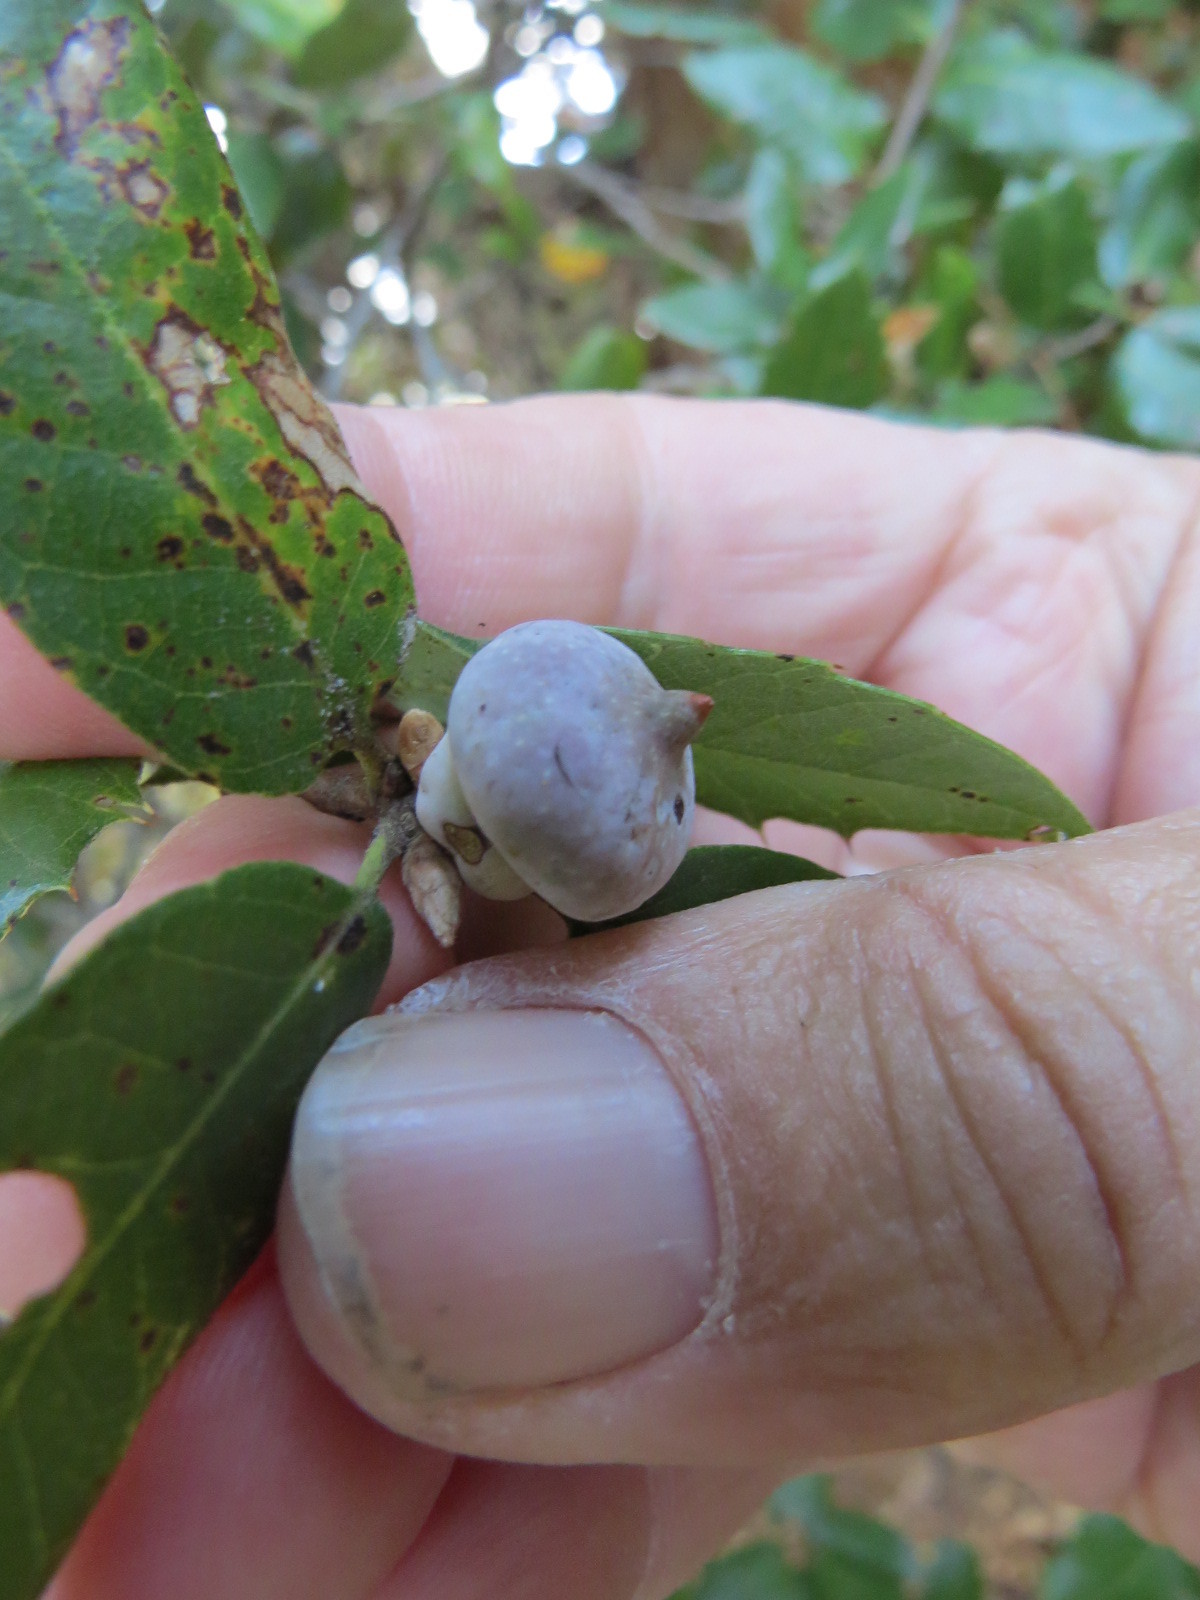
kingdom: Animalia
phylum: Arthropoda
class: Insecta
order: Hymenoptera
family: Cynipidae
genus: Heteroecus
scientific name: Heteroecus
